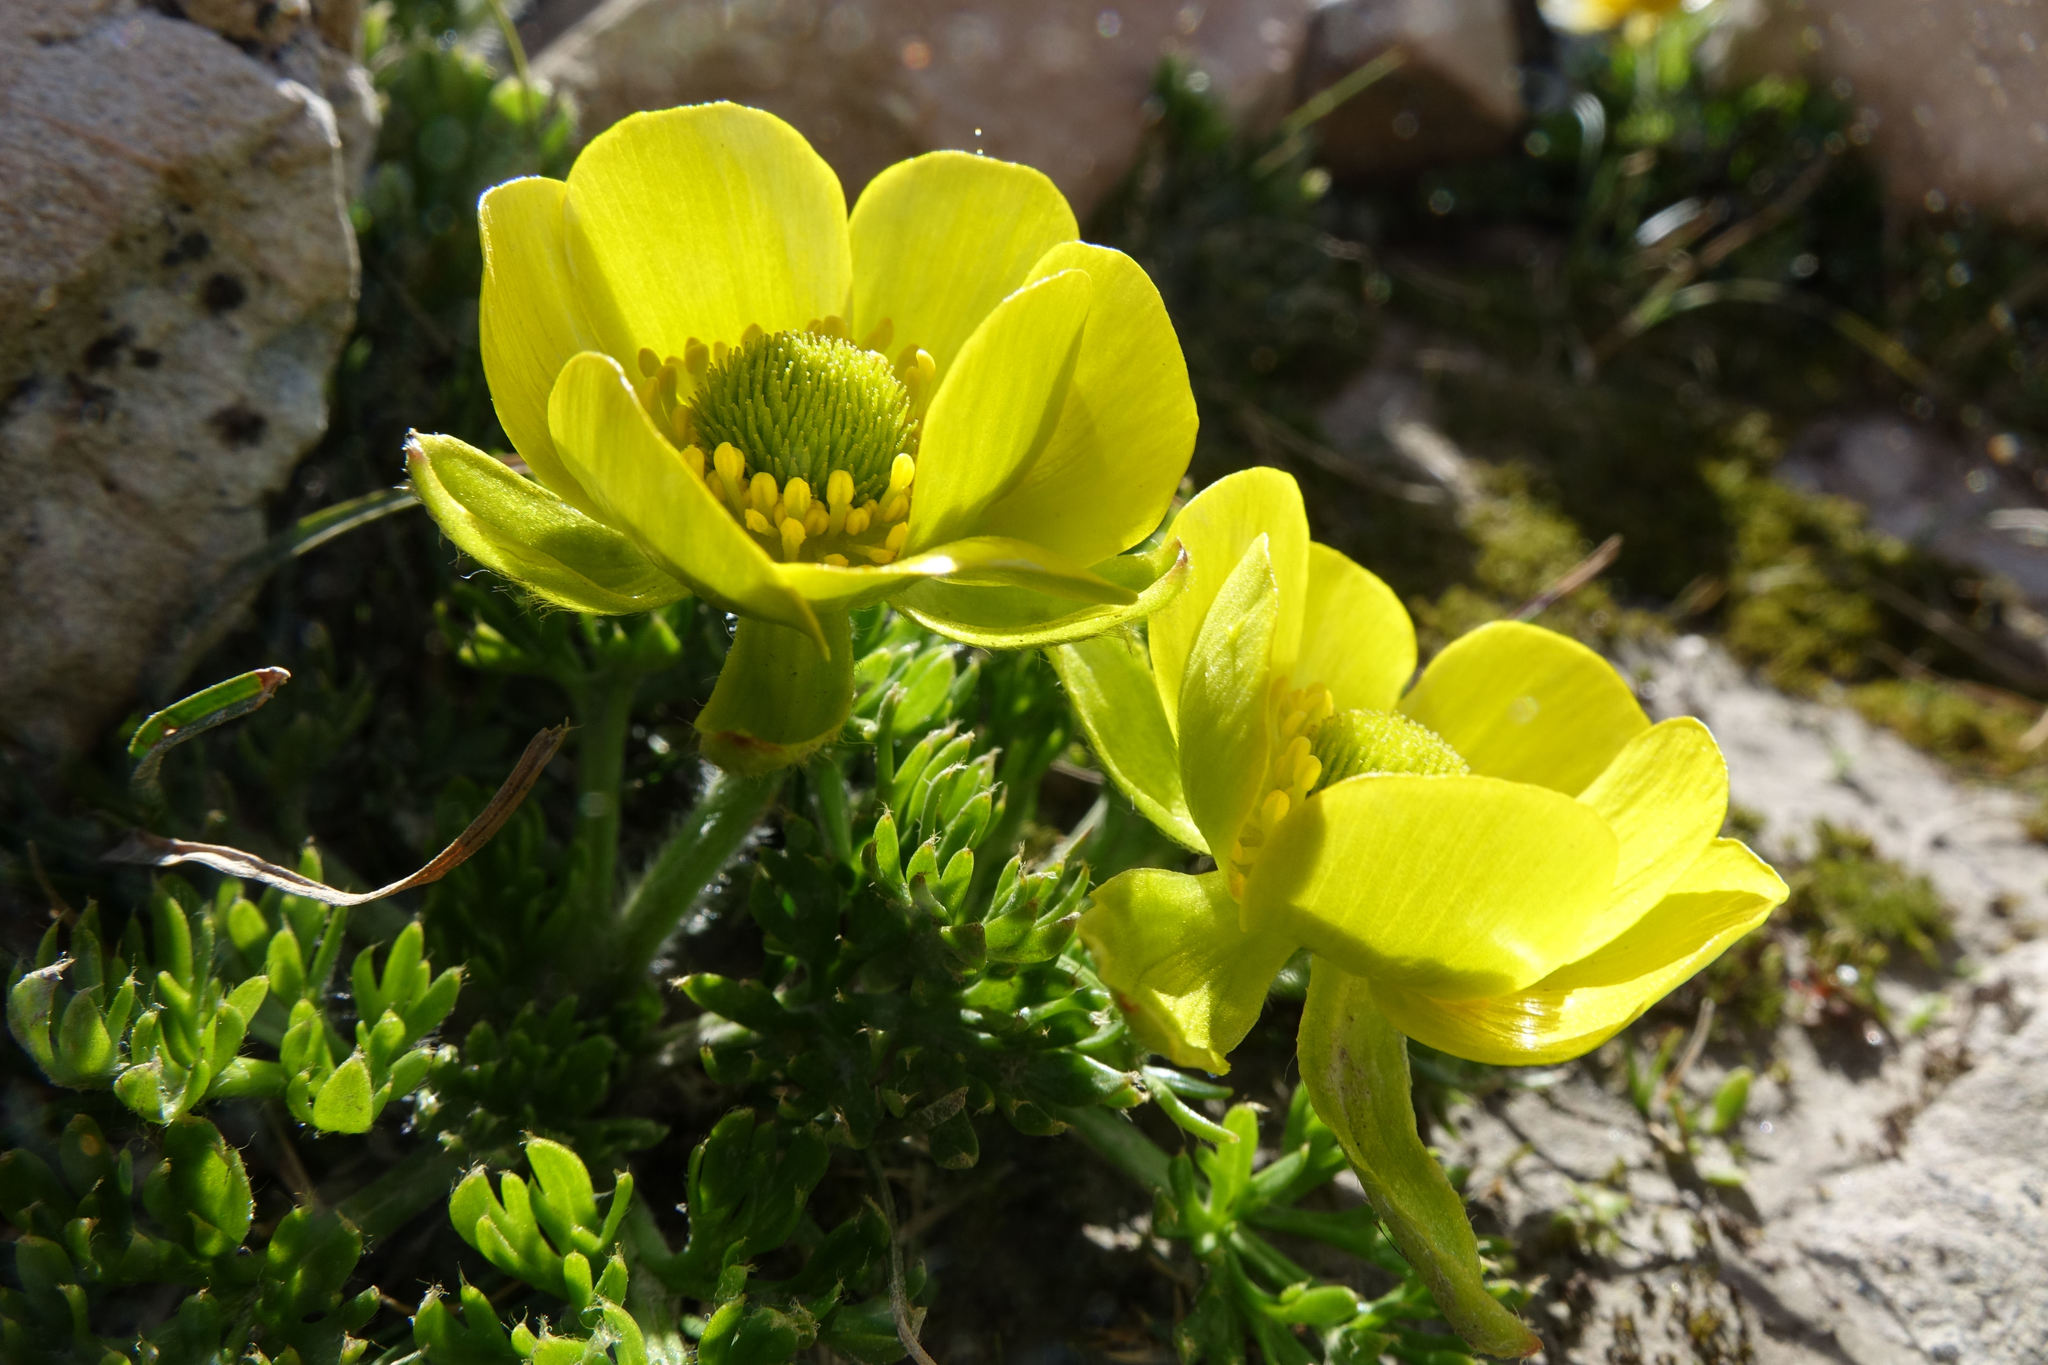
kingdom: Plantae
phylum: Tracheophyta
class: Magnoliopsida
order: Ranunculales
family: Ranunculaceae
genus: Ranunculus
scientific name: Ranunculus sericophyllus
